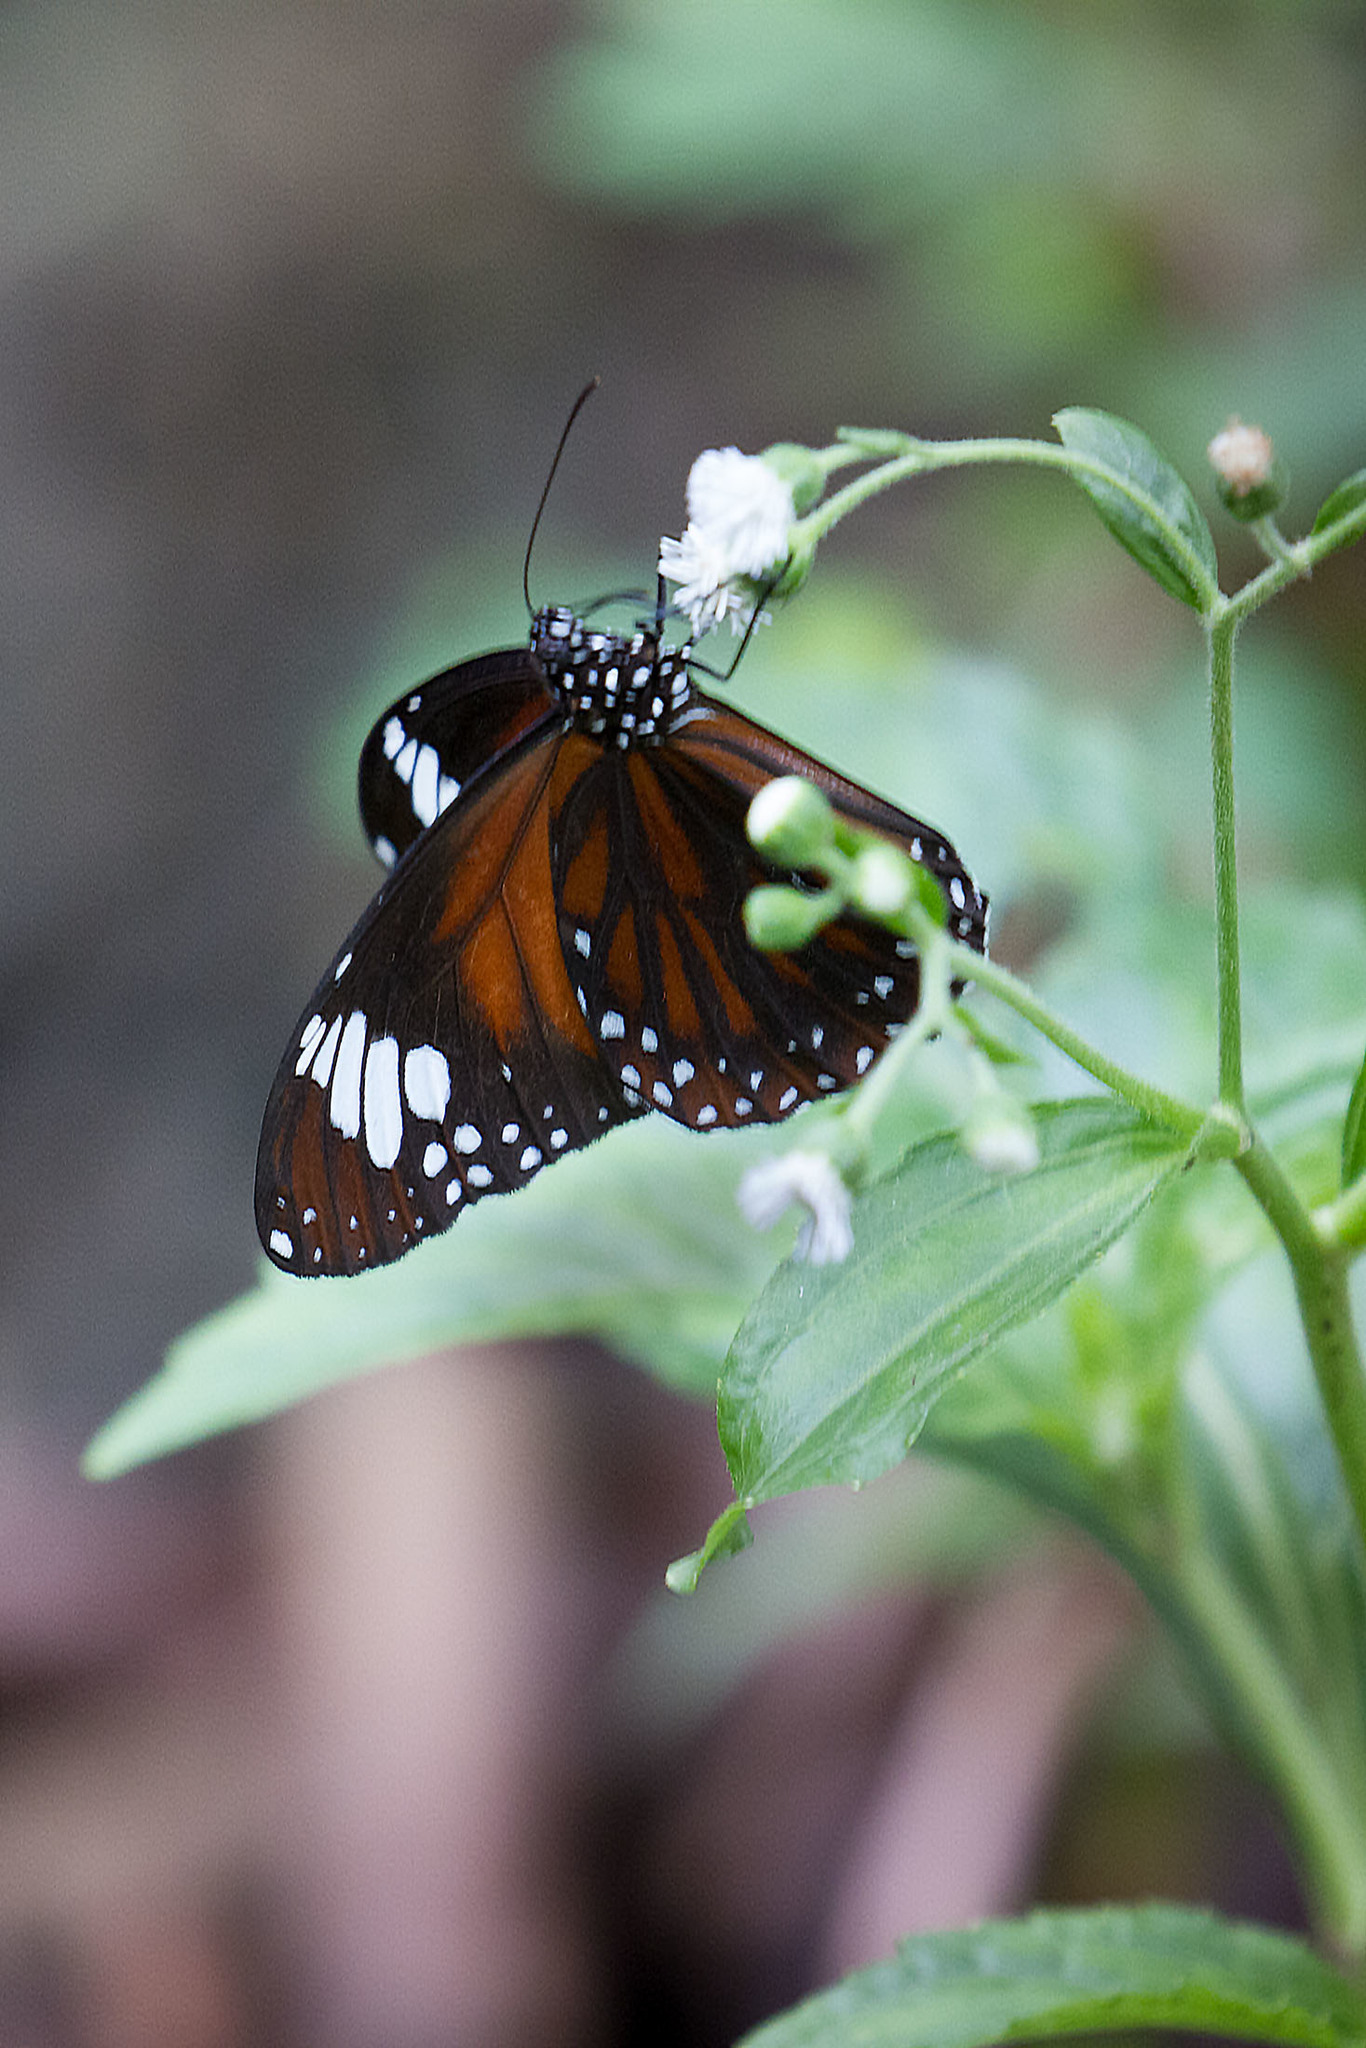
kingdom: Animalia
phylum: Arthropoda
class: Insecta
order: Lepidoptera
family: Nymphalidae
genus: Danaus
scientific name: Danaus affinis
